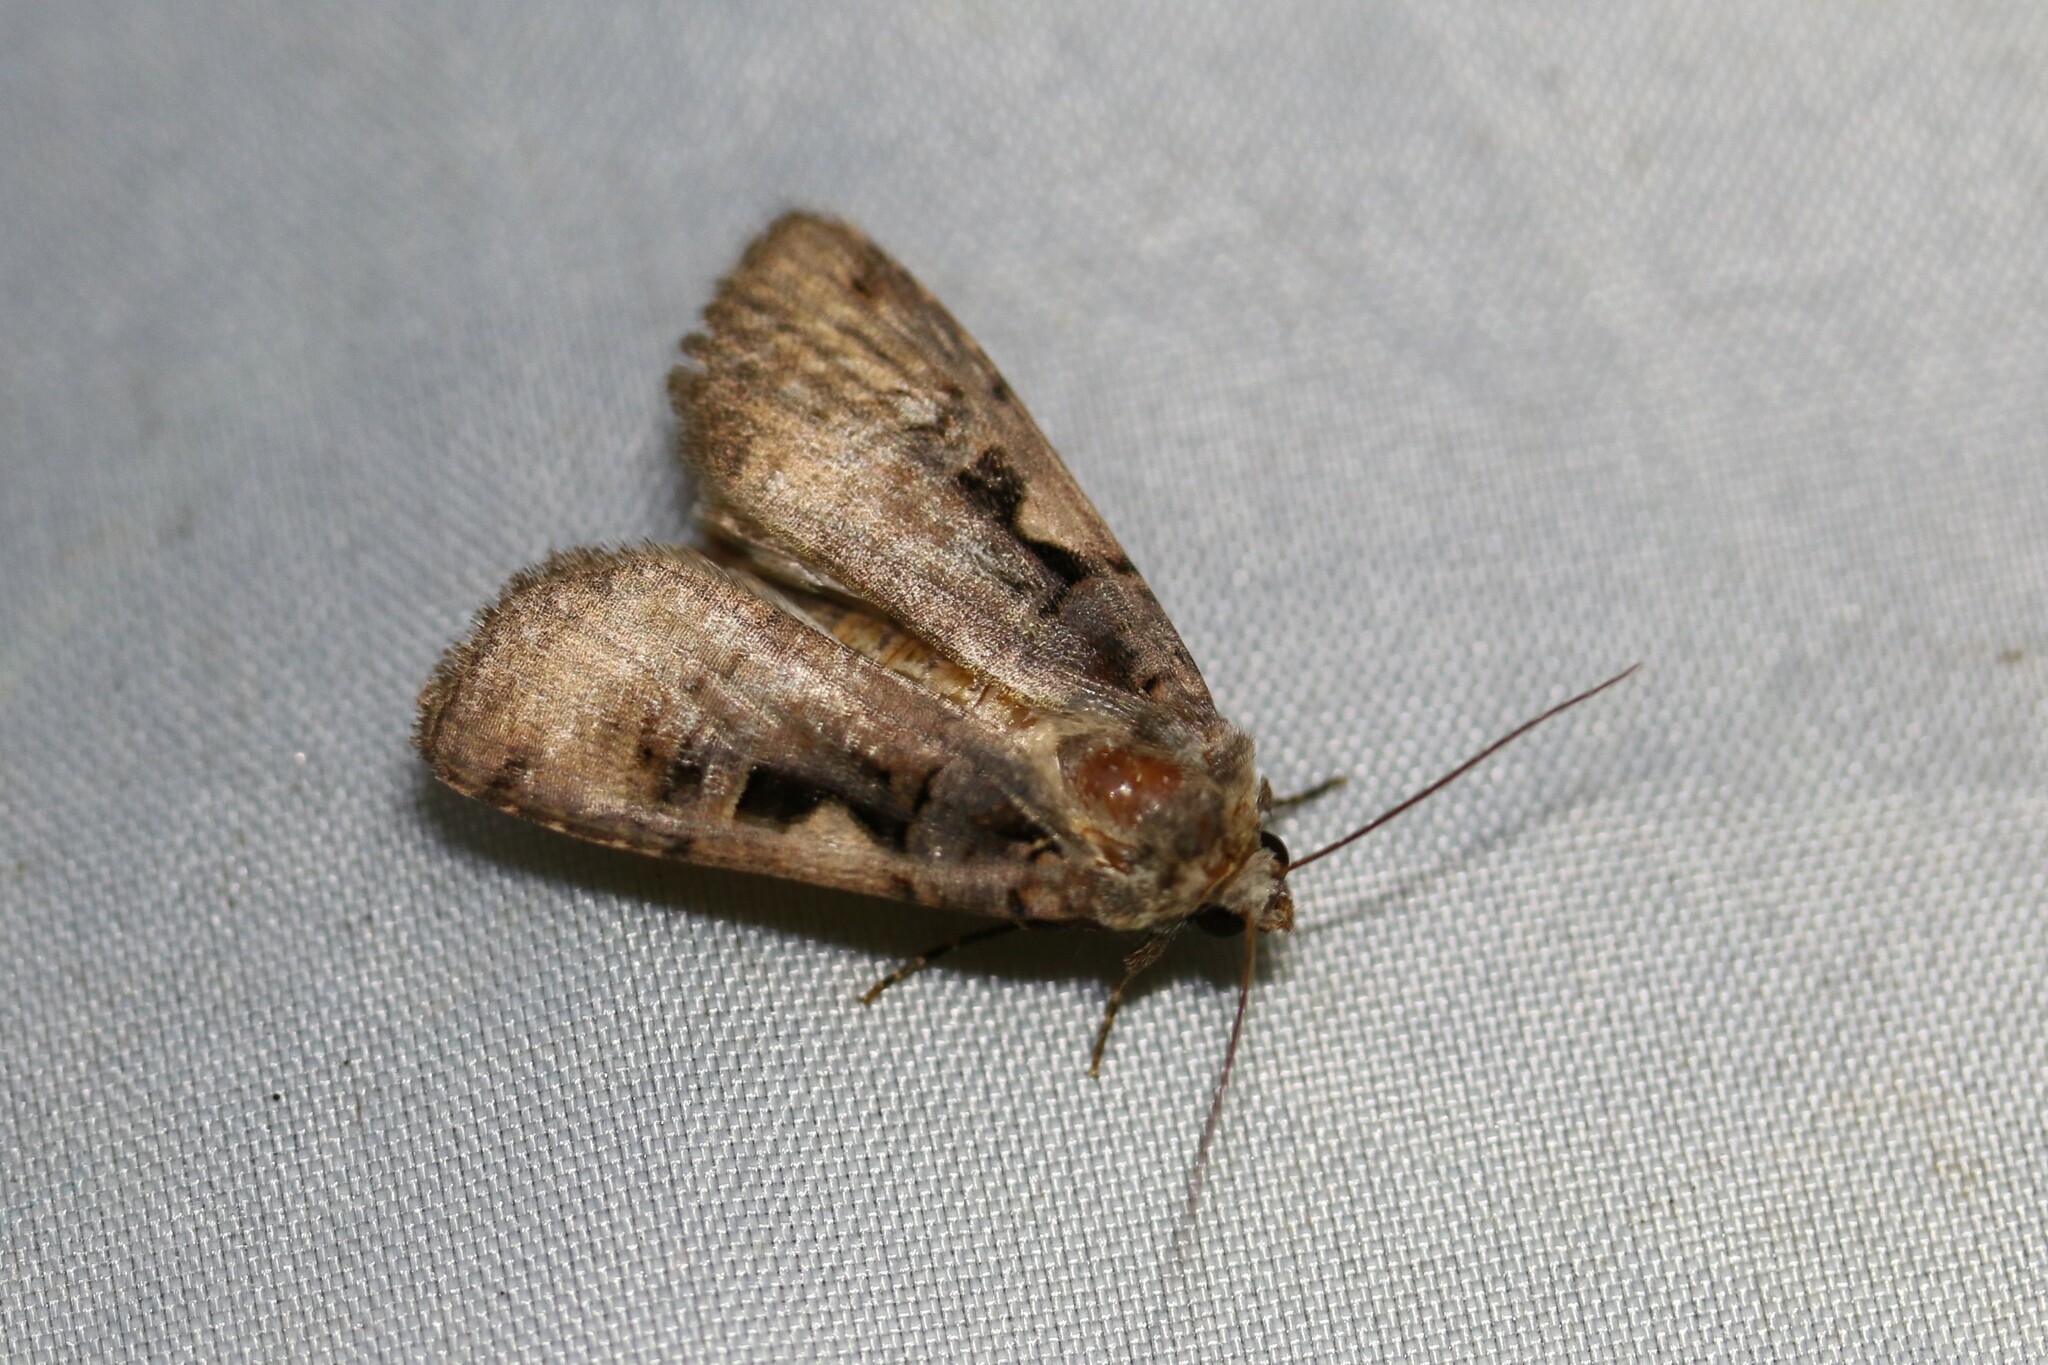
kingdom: Animalia
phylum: Arthropoda
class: Insecta
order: Lepidoptera
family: Noctuidae
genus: Xestia
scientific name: Xestia c-nigrum
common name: Setaceous hebrew character
